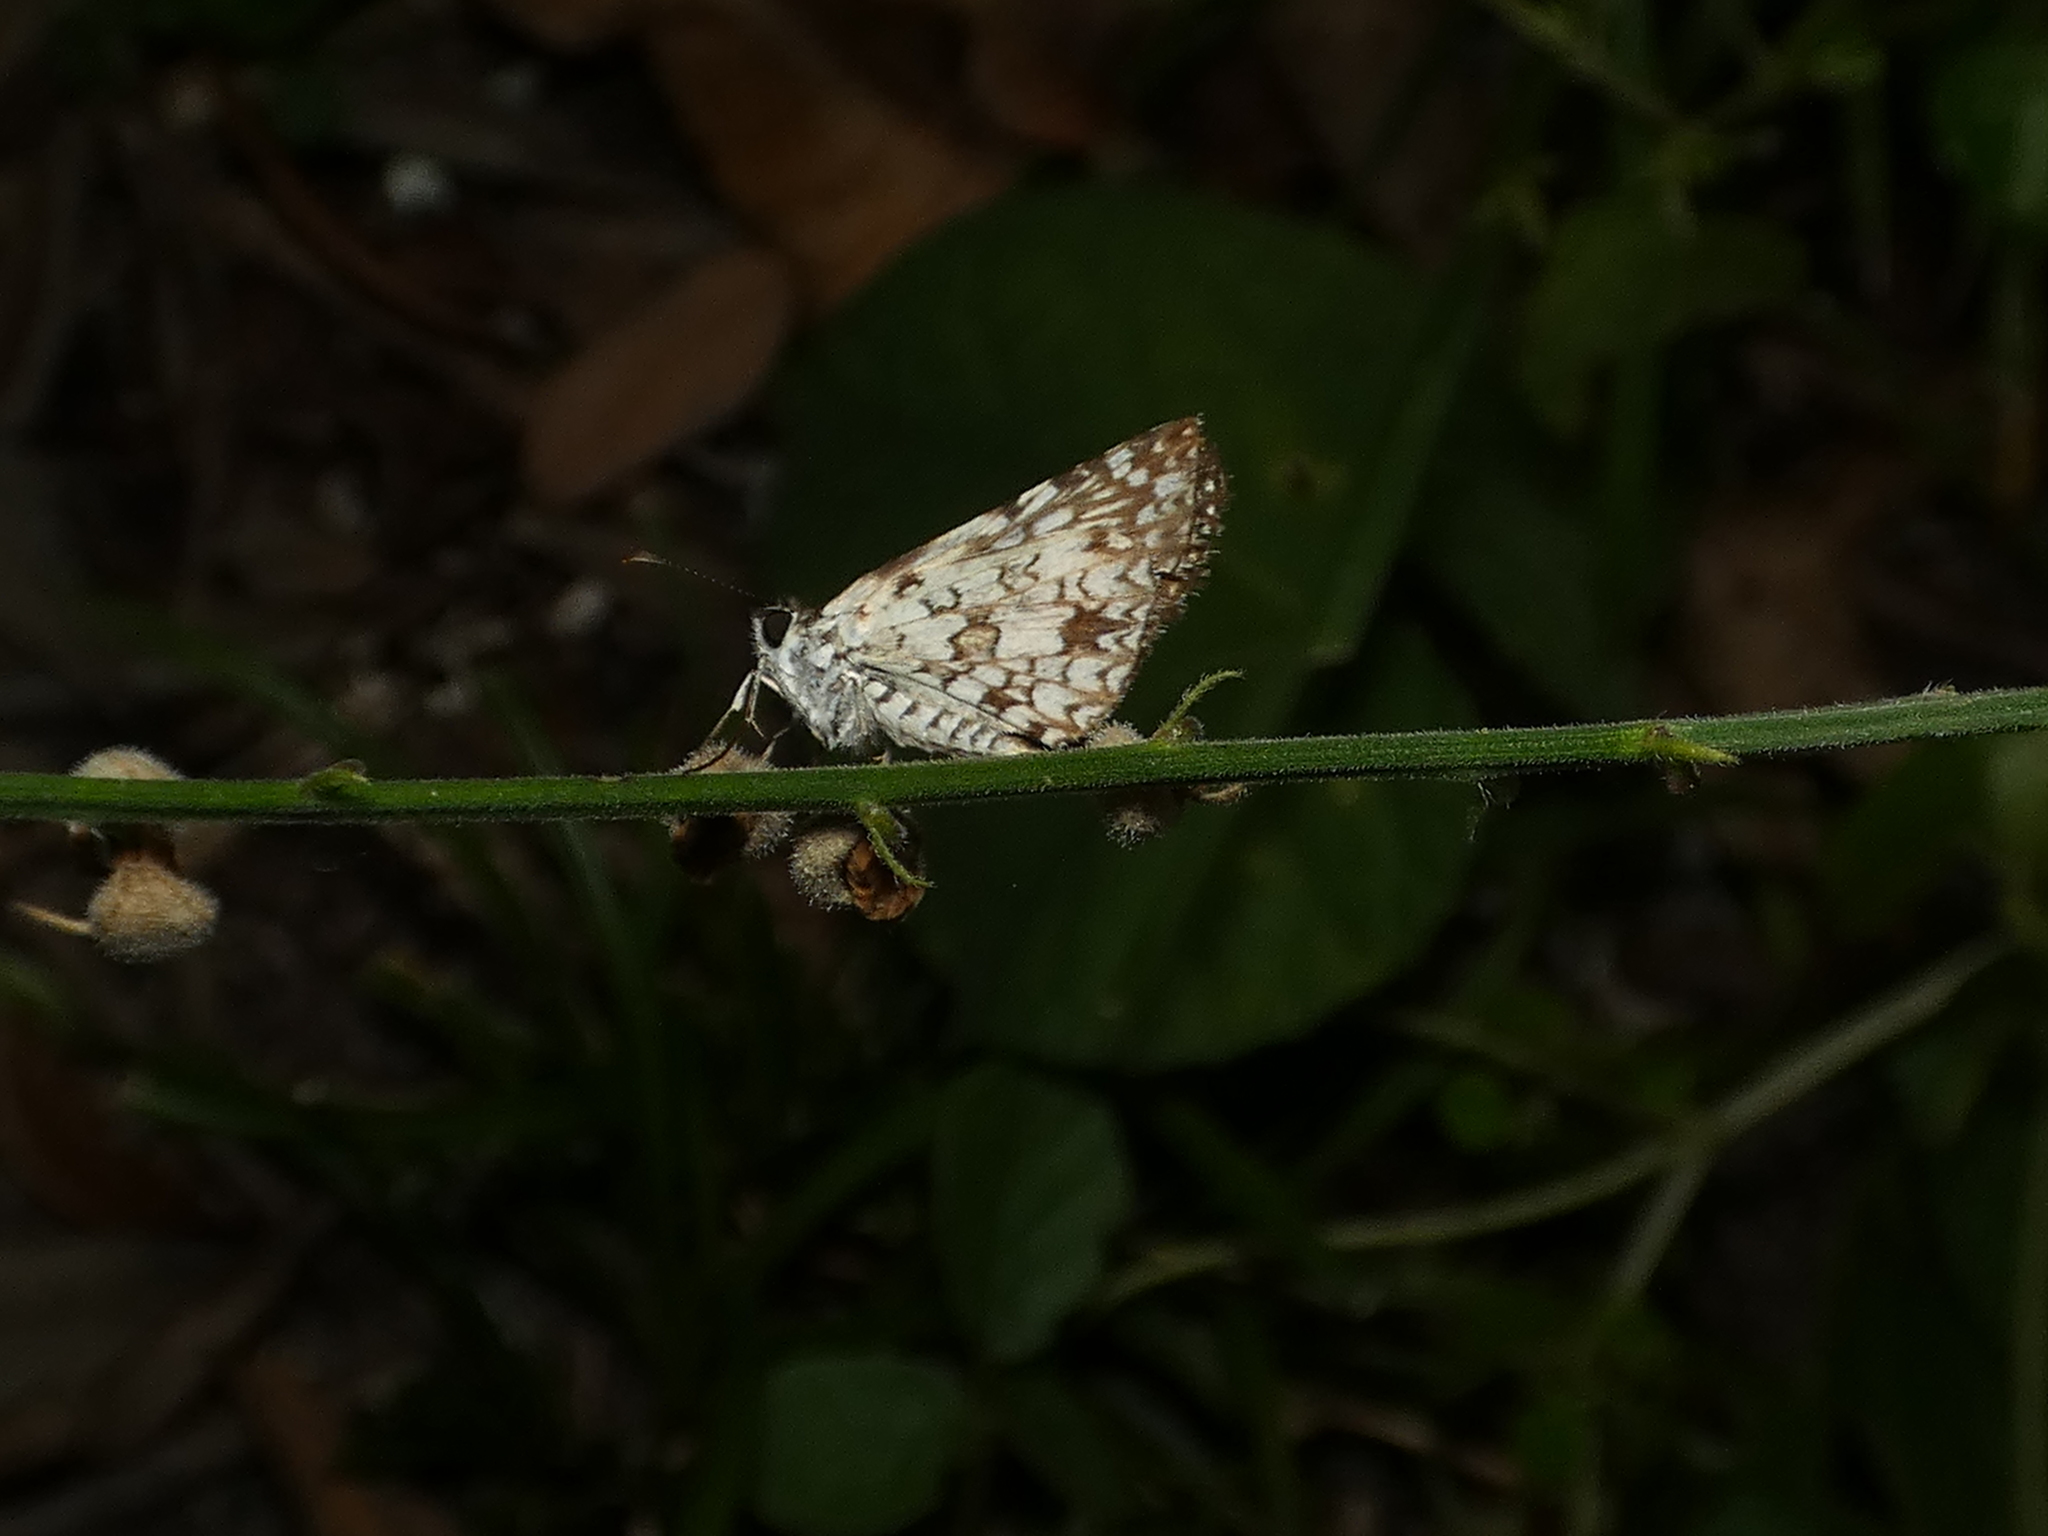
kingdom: Animalia
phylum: Arthropoda
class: Insecta
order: Lepidoptera
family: Hesperiidae
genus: Pyrgus
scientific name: Pyrgus oileus
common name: Tropical checkered-skipper
